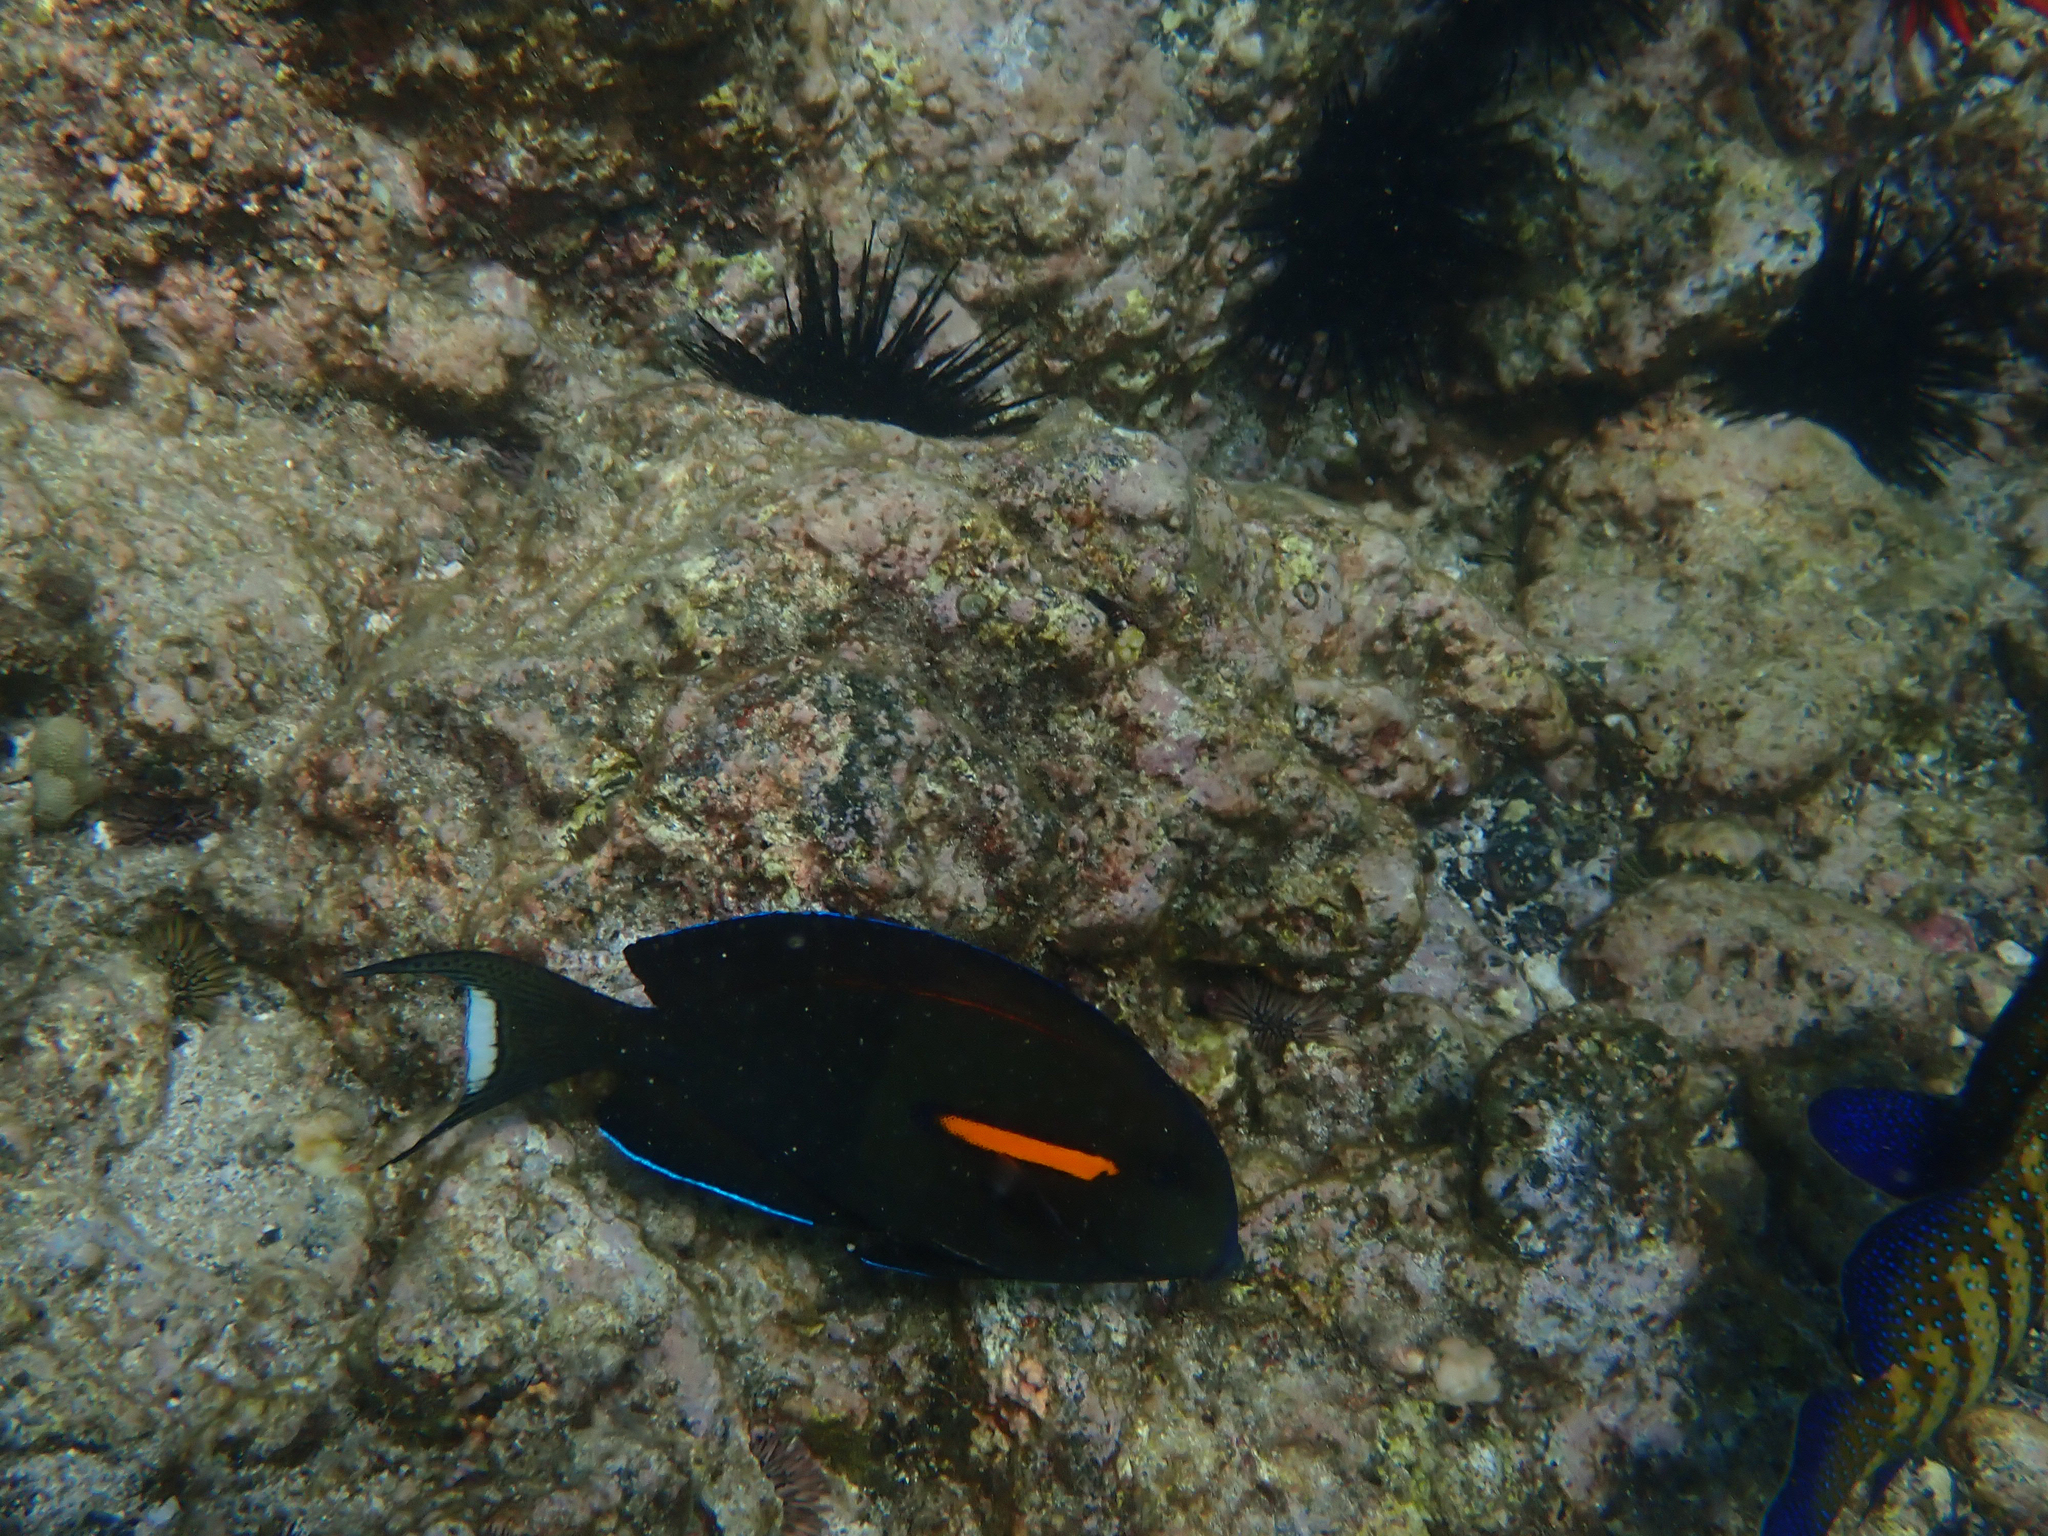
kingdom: Animalia
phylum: Chordata
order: Perciformes
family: Acanthuridae
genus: Acanthurus
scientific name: Acanthurus olivaceus
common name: Gendarme fish
